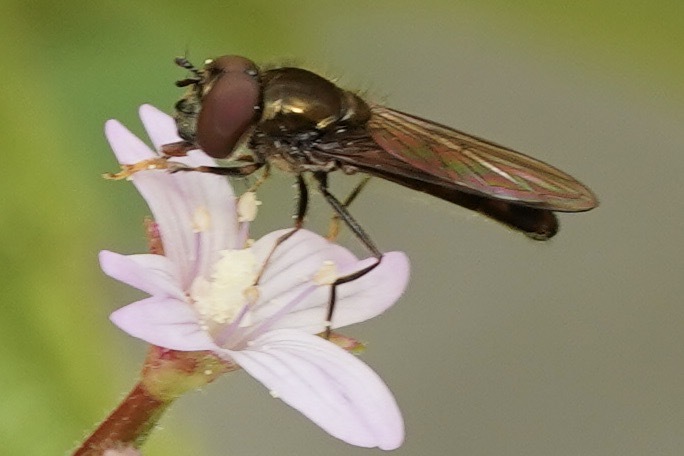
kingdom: Animalia
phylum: Arthropoda
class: Insecta
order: Diptera
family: Syrphidae
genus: Platycheirus
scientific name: Platycheirus albimanus
